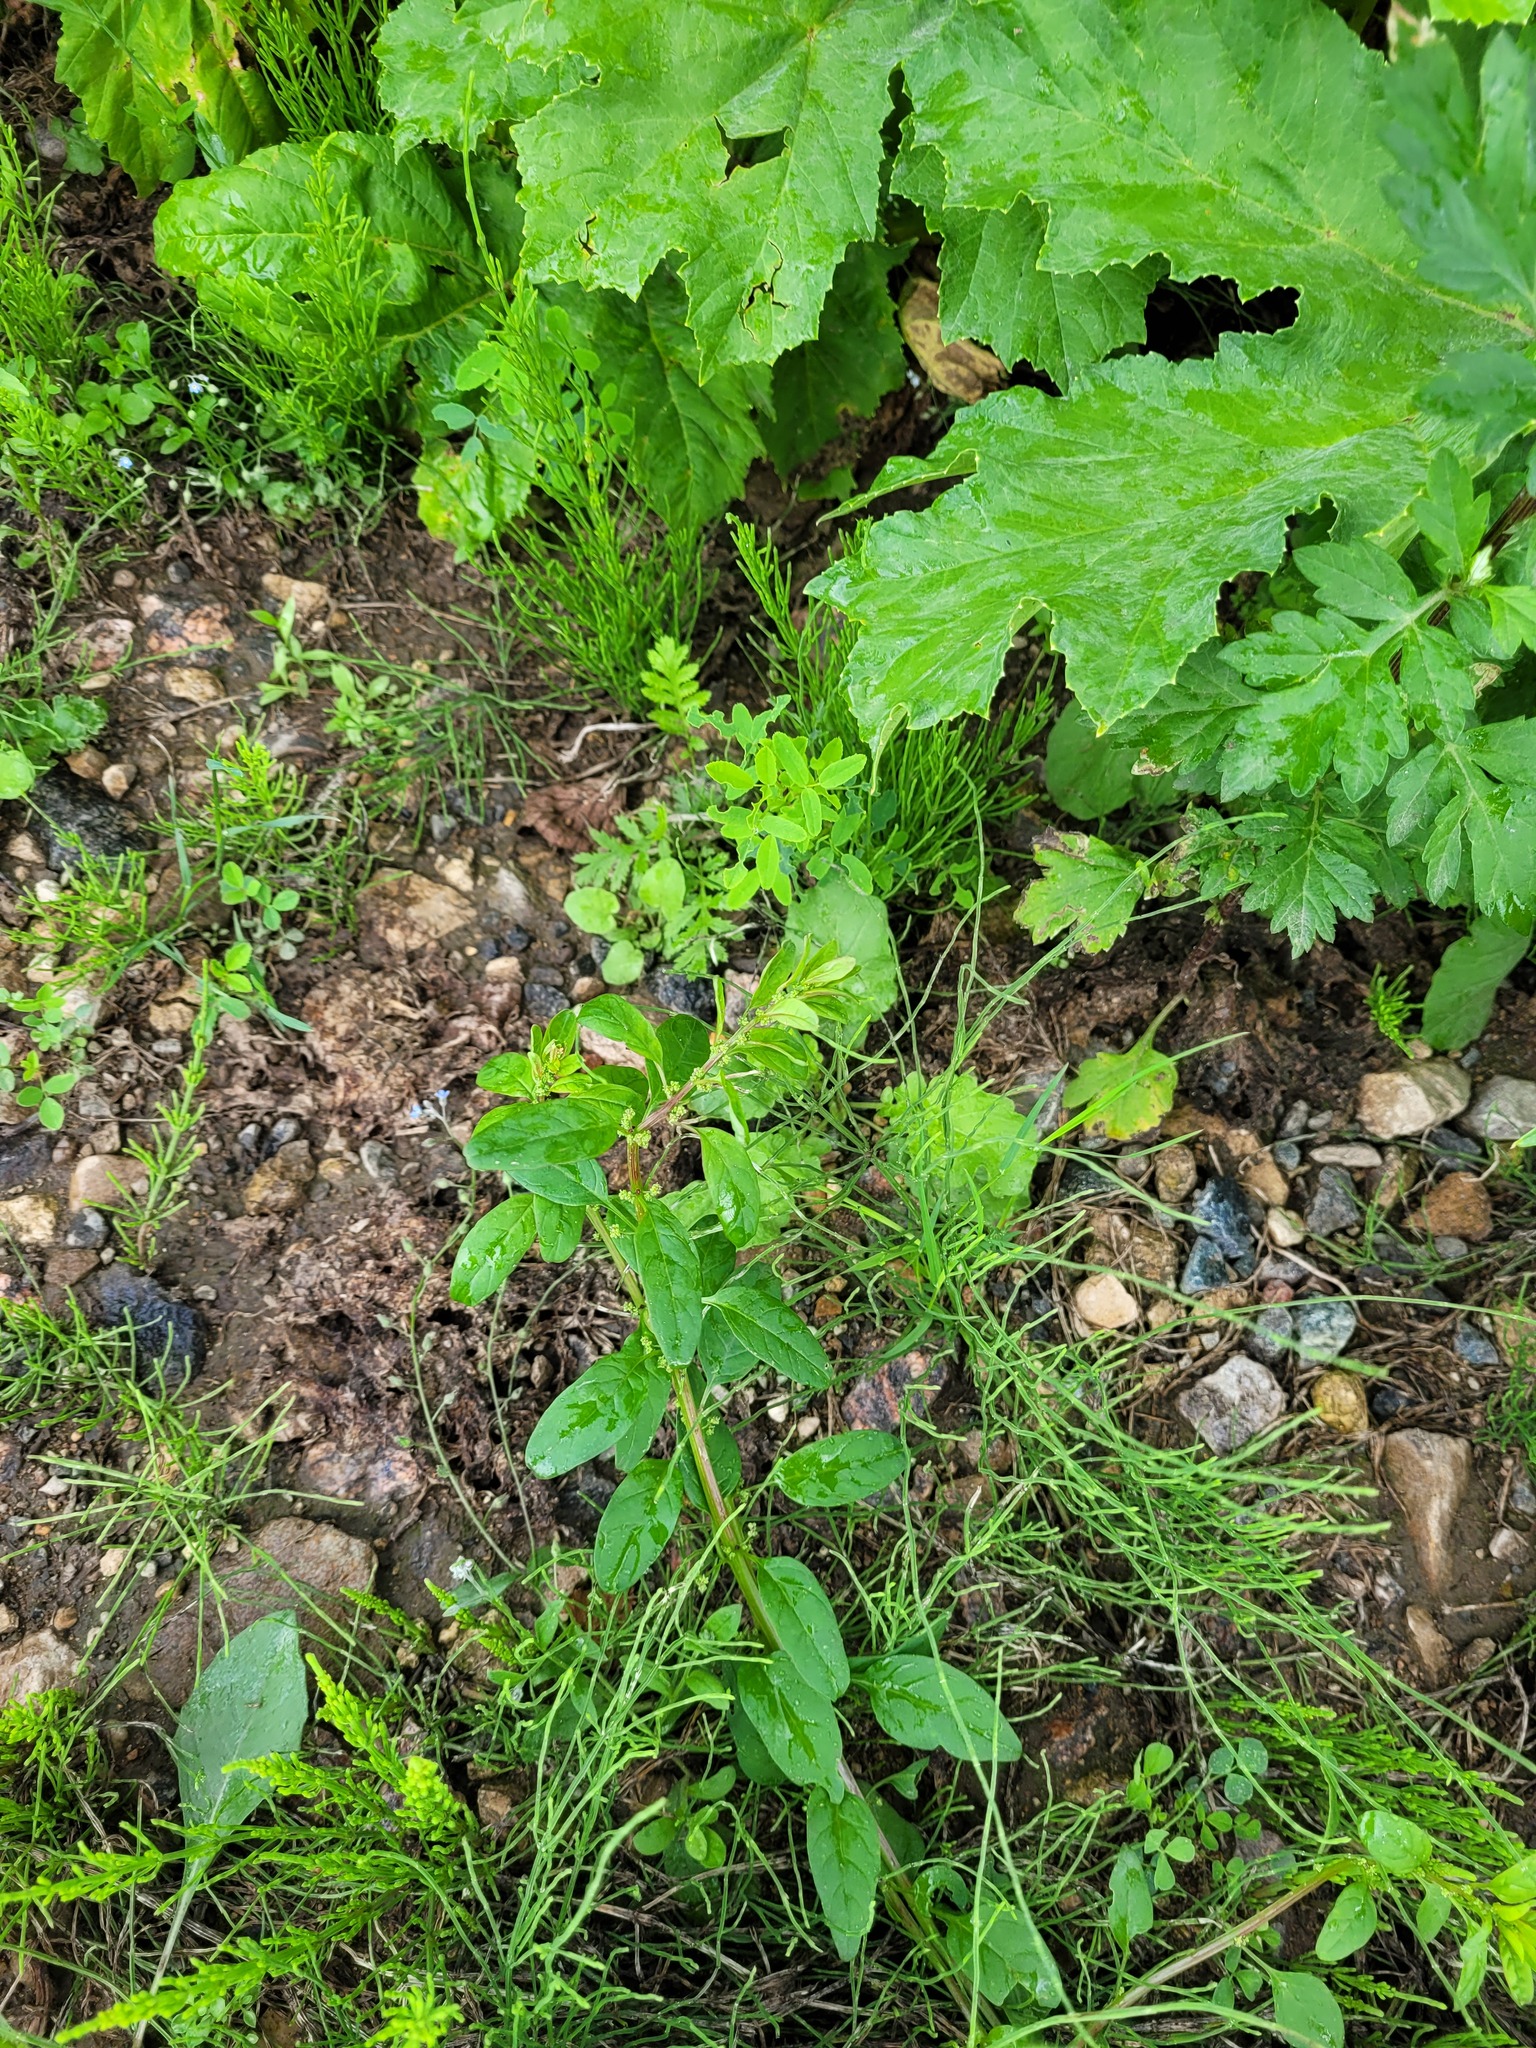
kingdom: Plantae
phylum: Tracheophyta
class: Magnoliopsida
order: Caryophyllales
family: Amaranthaceae
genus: Lipandra
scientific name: Lipandra polysperma
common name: Many-seed goosefoot
